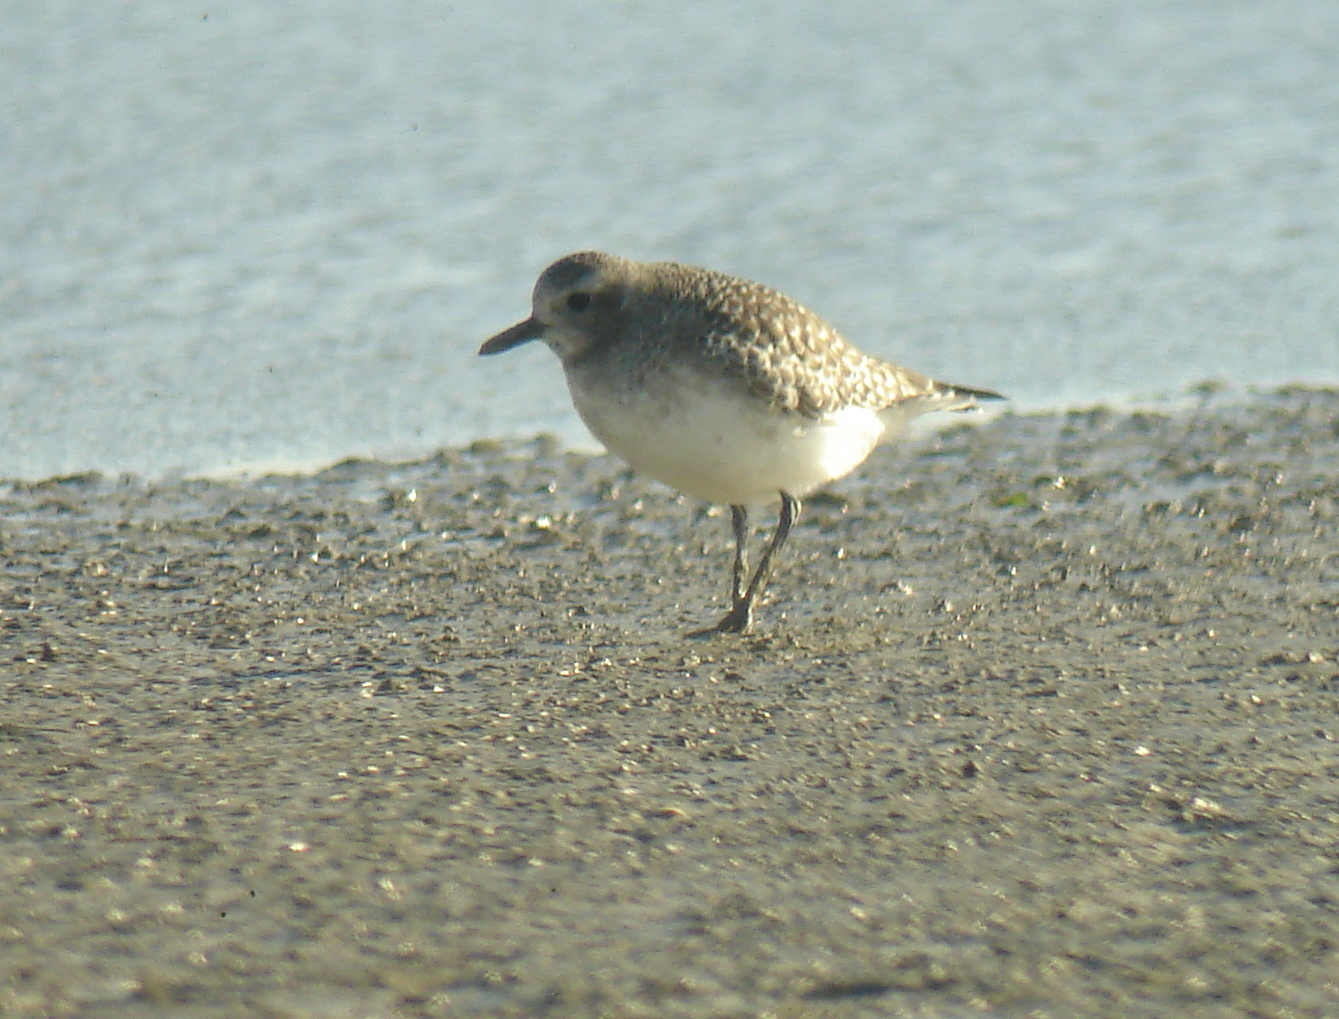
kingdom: Animalia
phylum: Chordata
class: Aves
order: Charadriiformes
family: Charadriidae
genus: Pluvialis
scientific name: Pluvialis squatarola
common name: Grey plover
